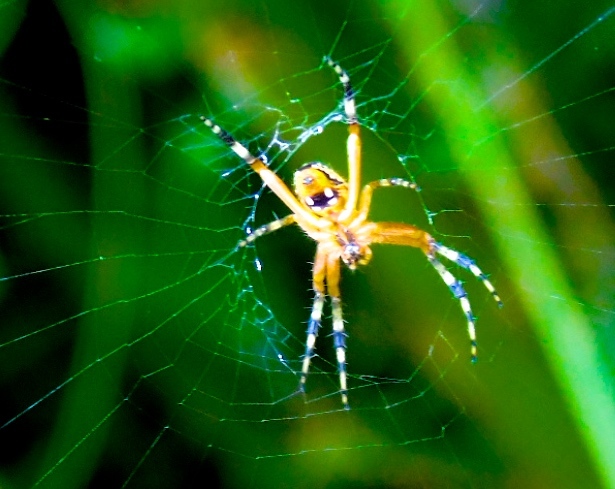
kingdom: Animalia
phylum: Arthropoda
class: Arachnida
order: Araneae
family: Araneidae
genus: Neoscona
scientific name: Neoscona
